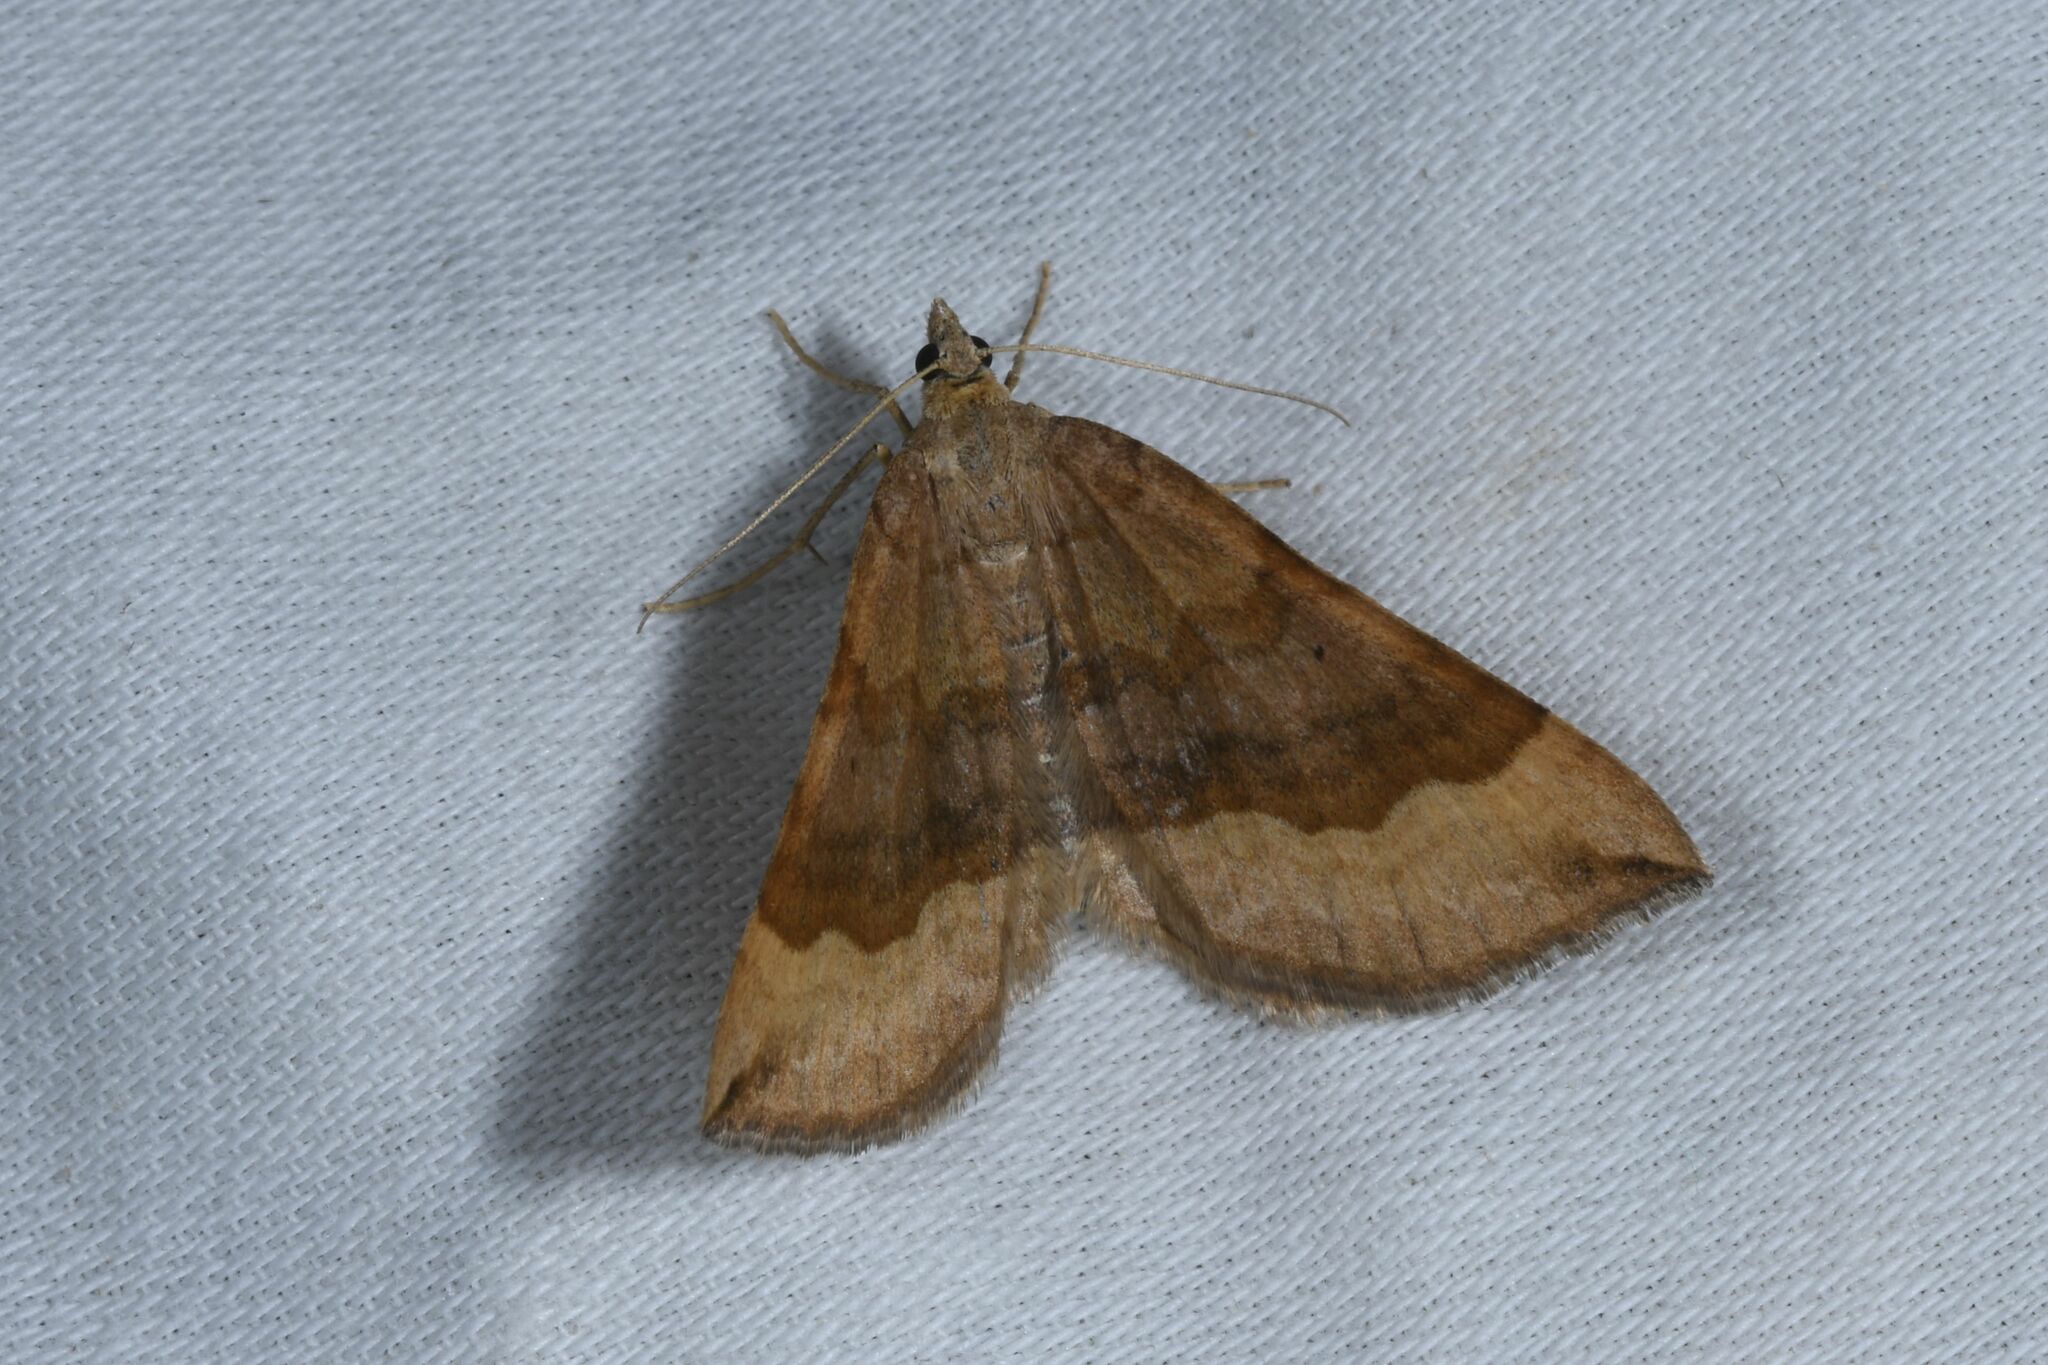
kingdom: Animalia
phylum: Arthropoda
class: Insecta
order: Lepidoptera
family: Geometridae
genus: Scotopteryx
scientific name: Scotopteryx chenopodiata
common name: Shaded broad-bar
